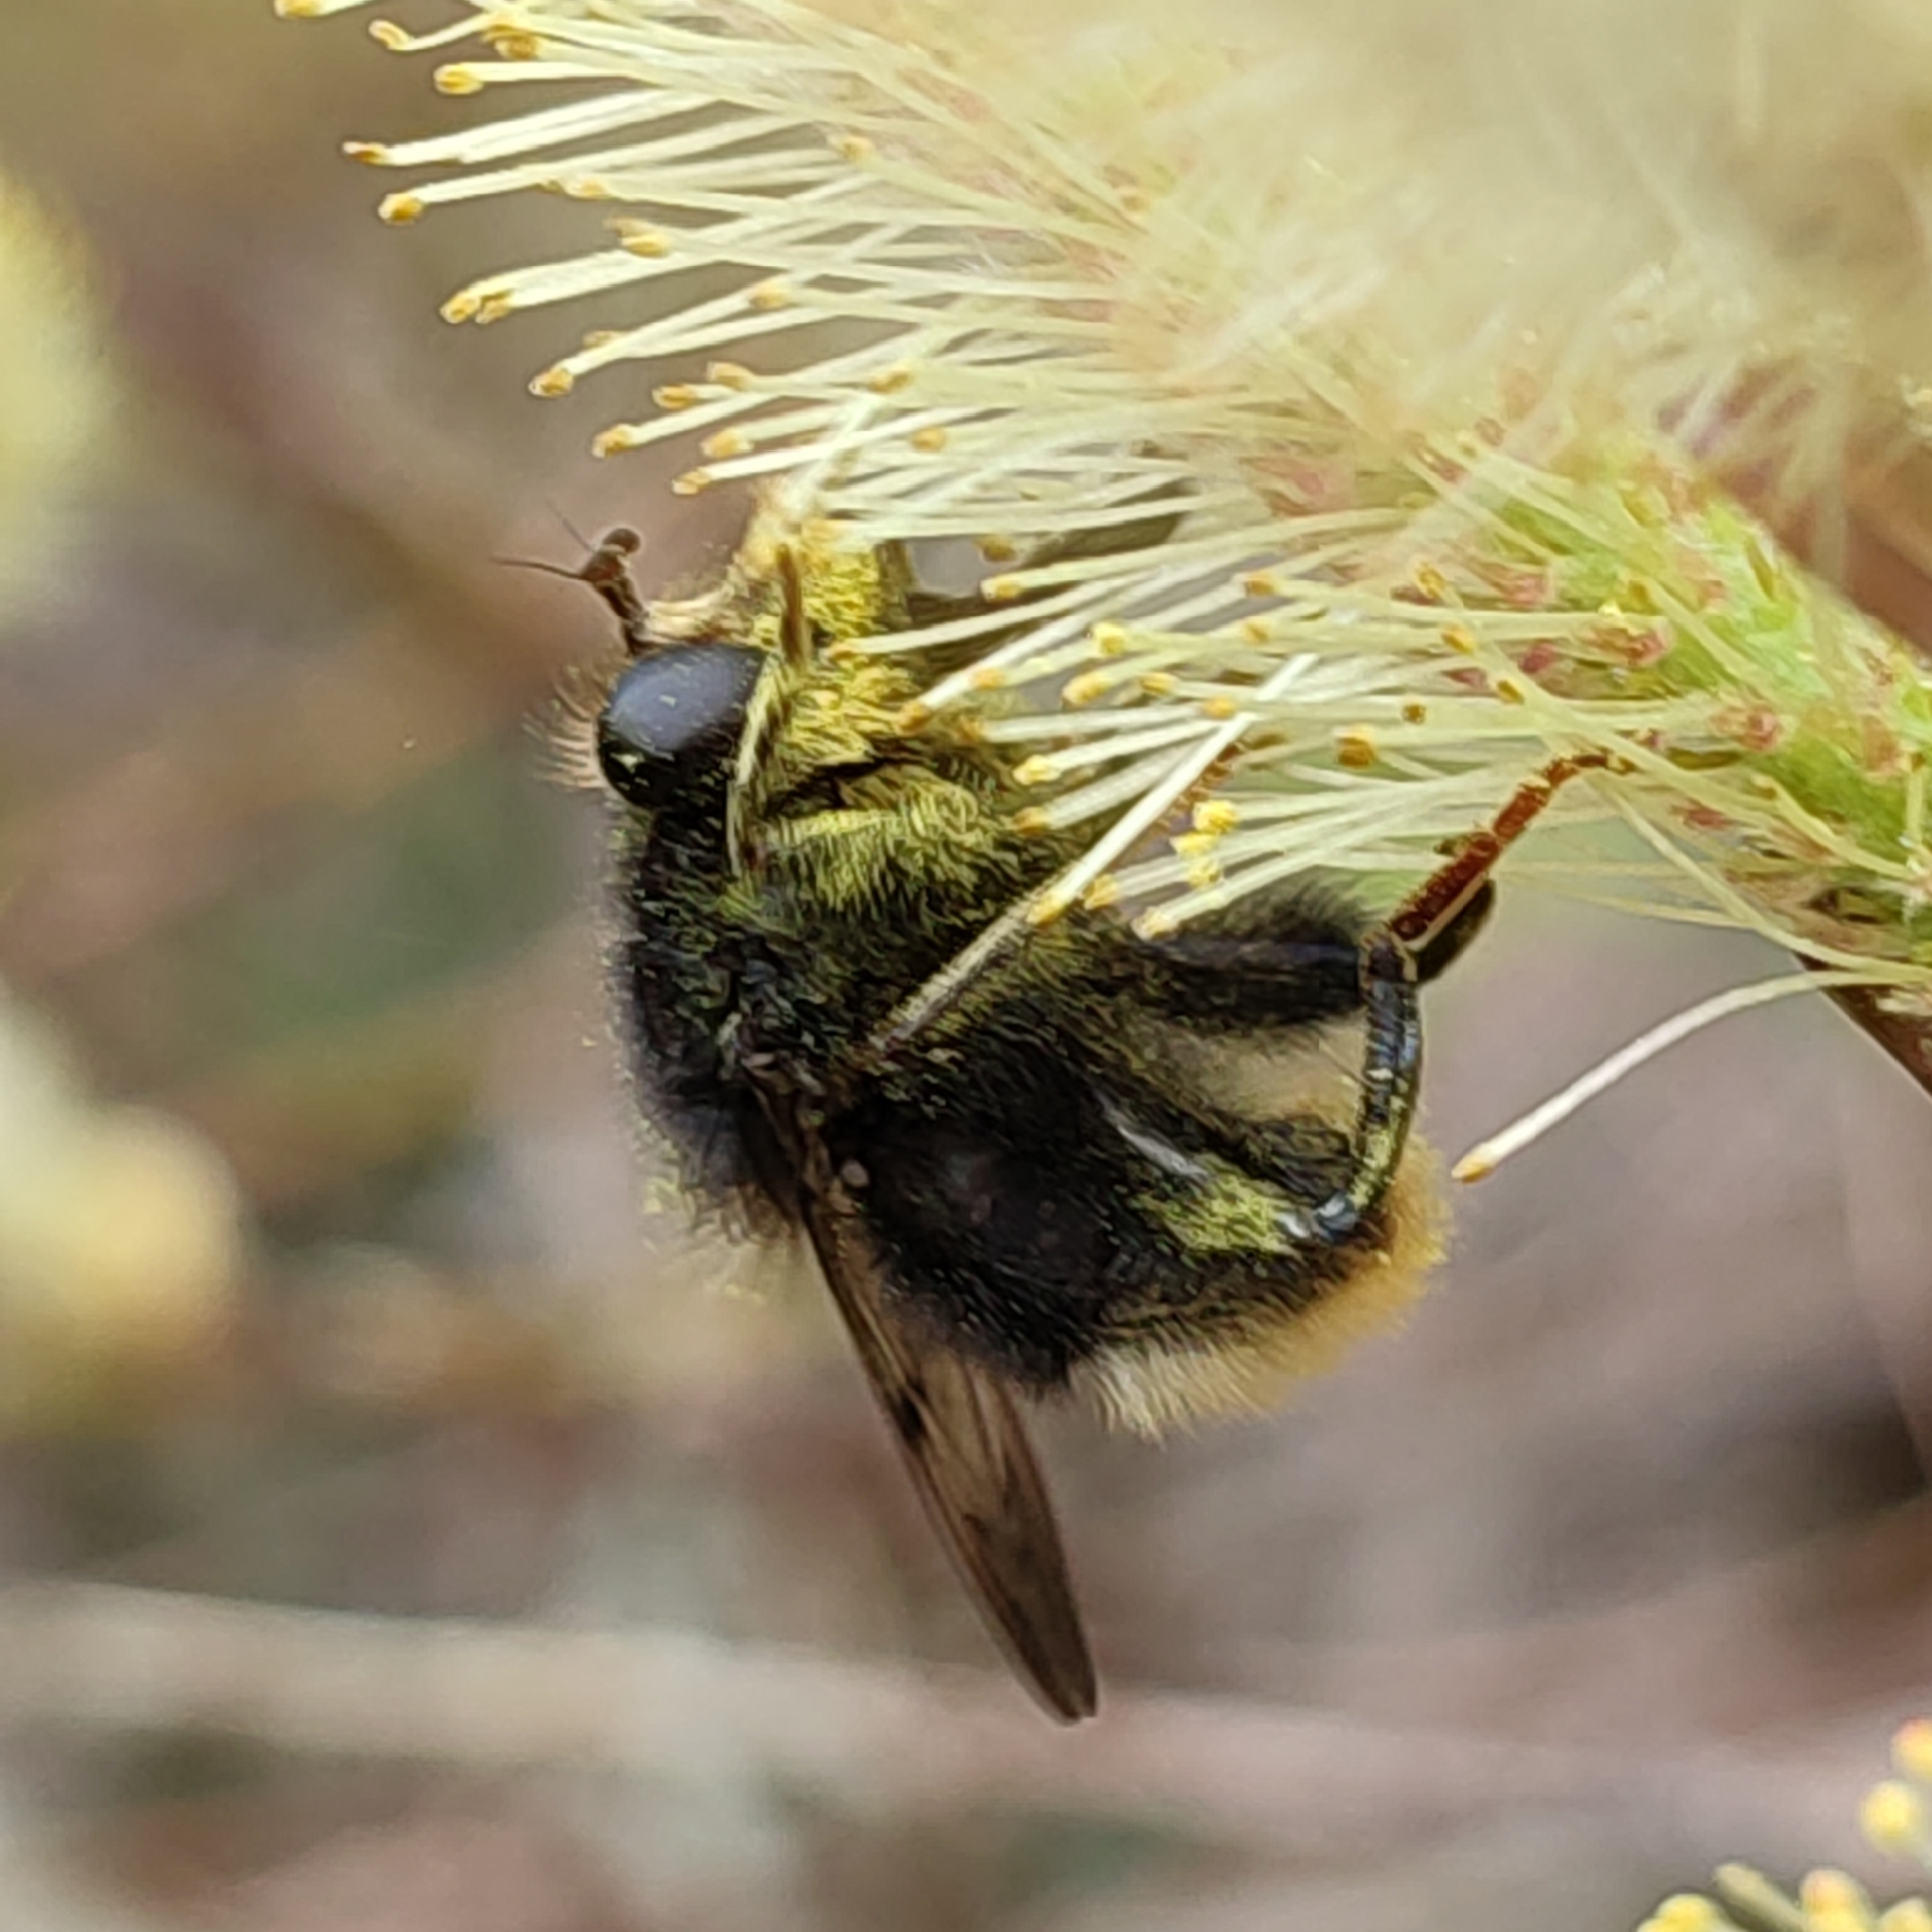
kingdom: Animalia
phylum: Arthropoda
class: Insecta
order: Diptera
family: Syrphidae
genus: Criorhina
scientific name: Criorhina ranunculi
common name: Large bear hoverfly
